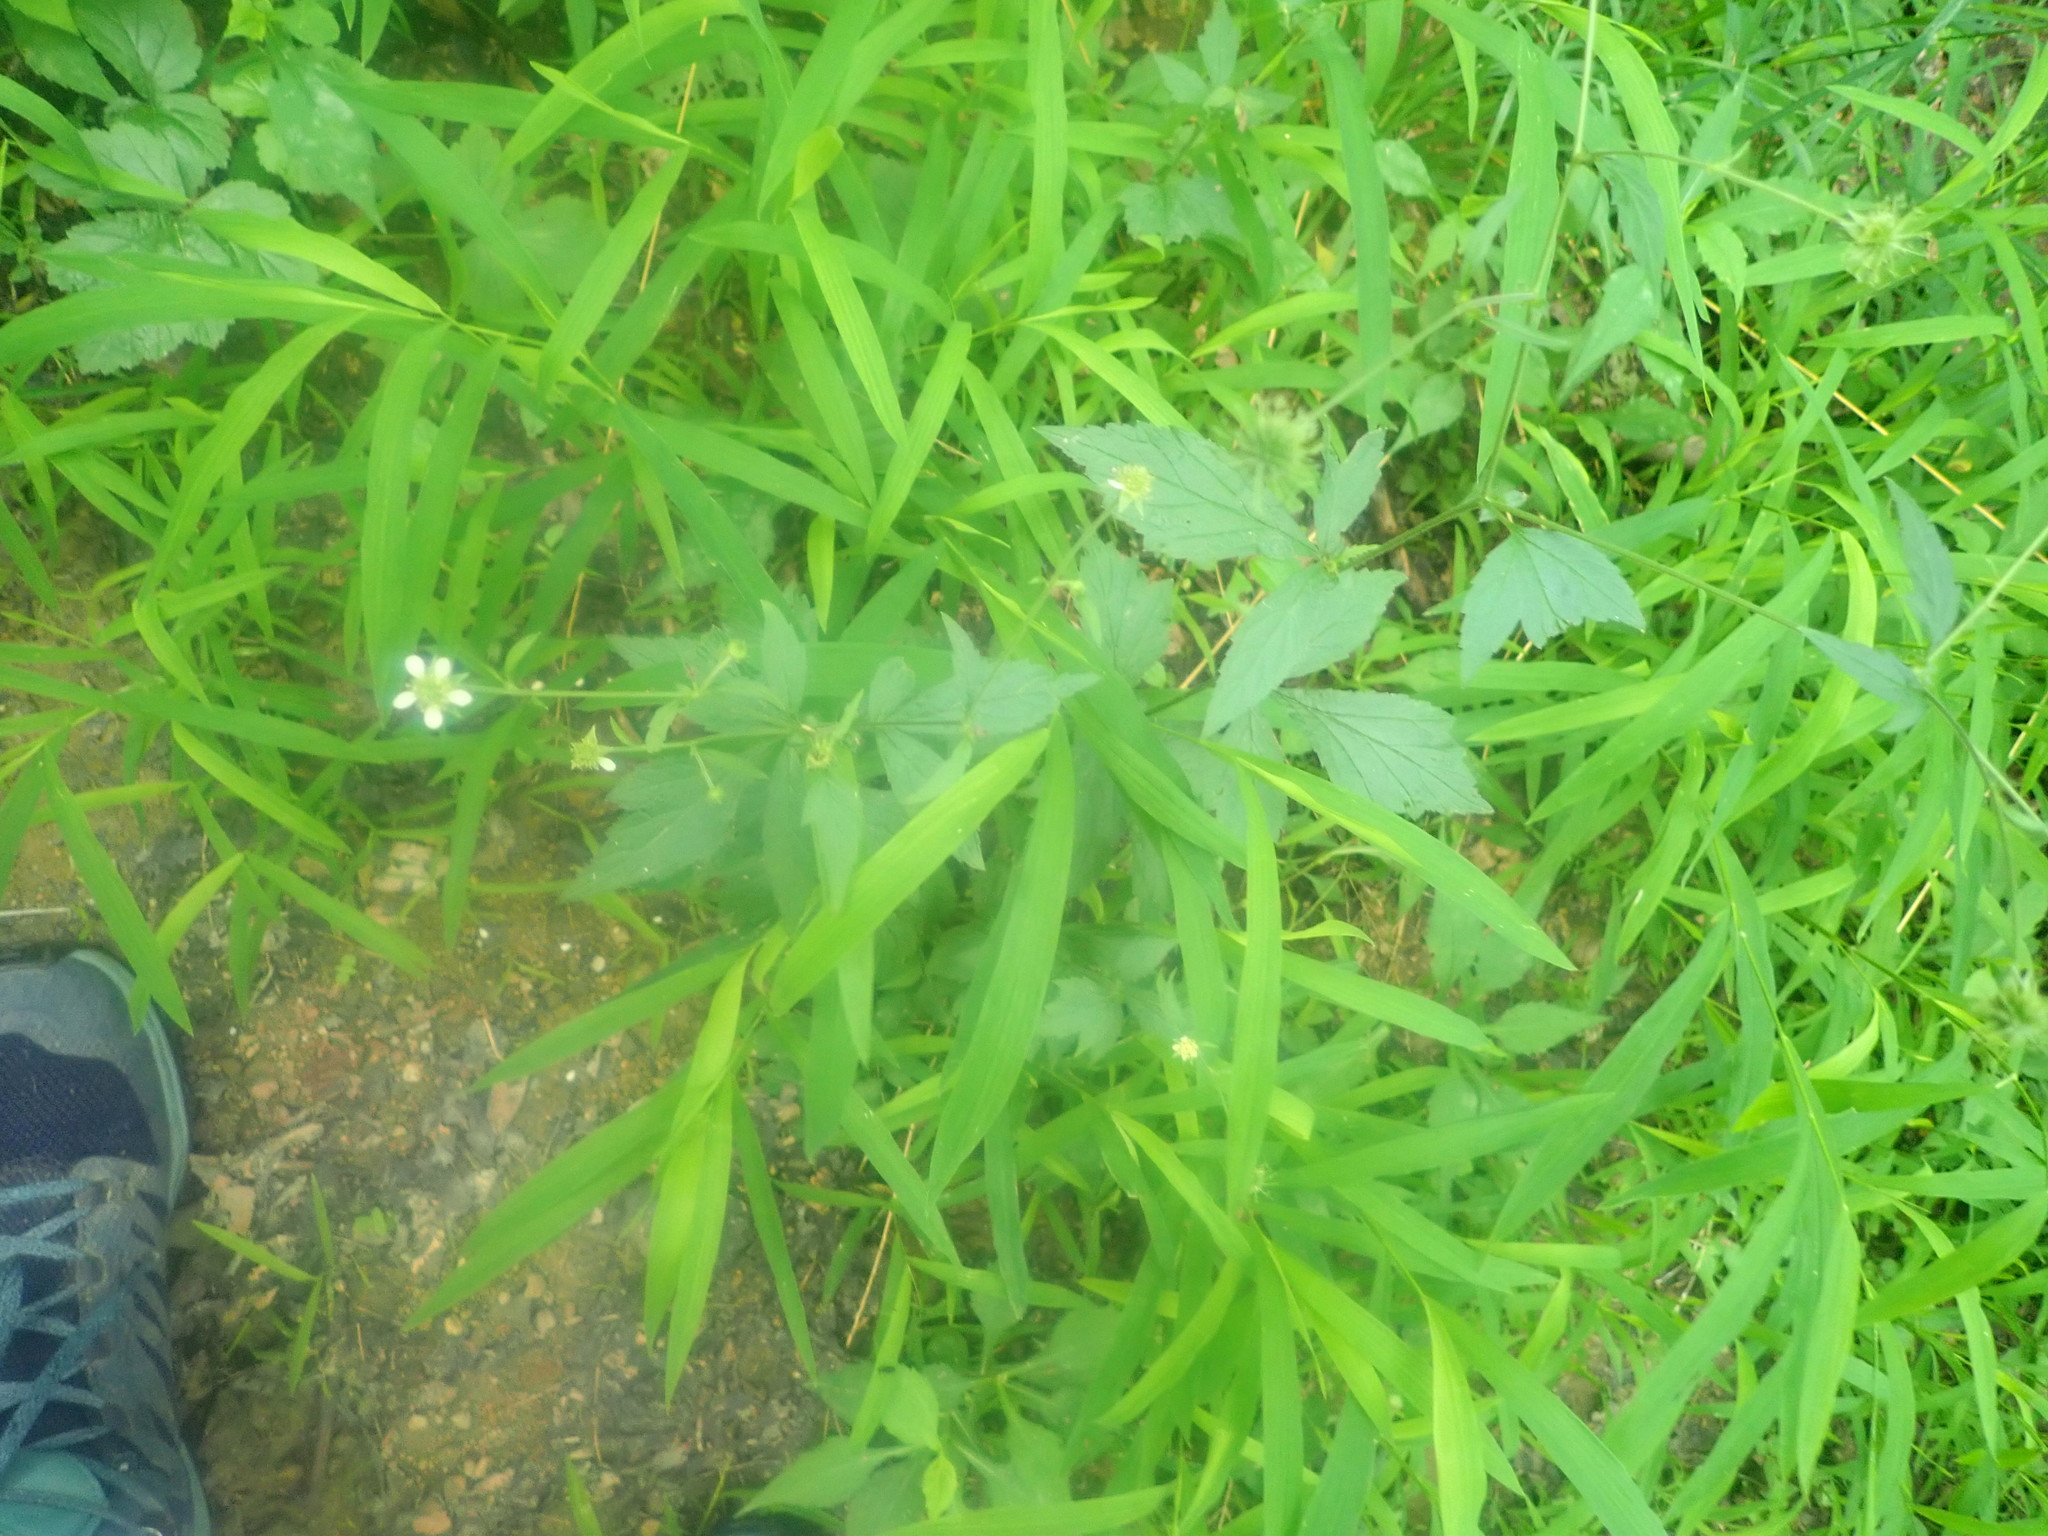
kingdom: Plantae
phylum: Tracheophyta
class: Magnoliopsida
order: Rosales
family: Rosaceae
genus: Geum
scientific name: Geum canadense
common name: White avens
